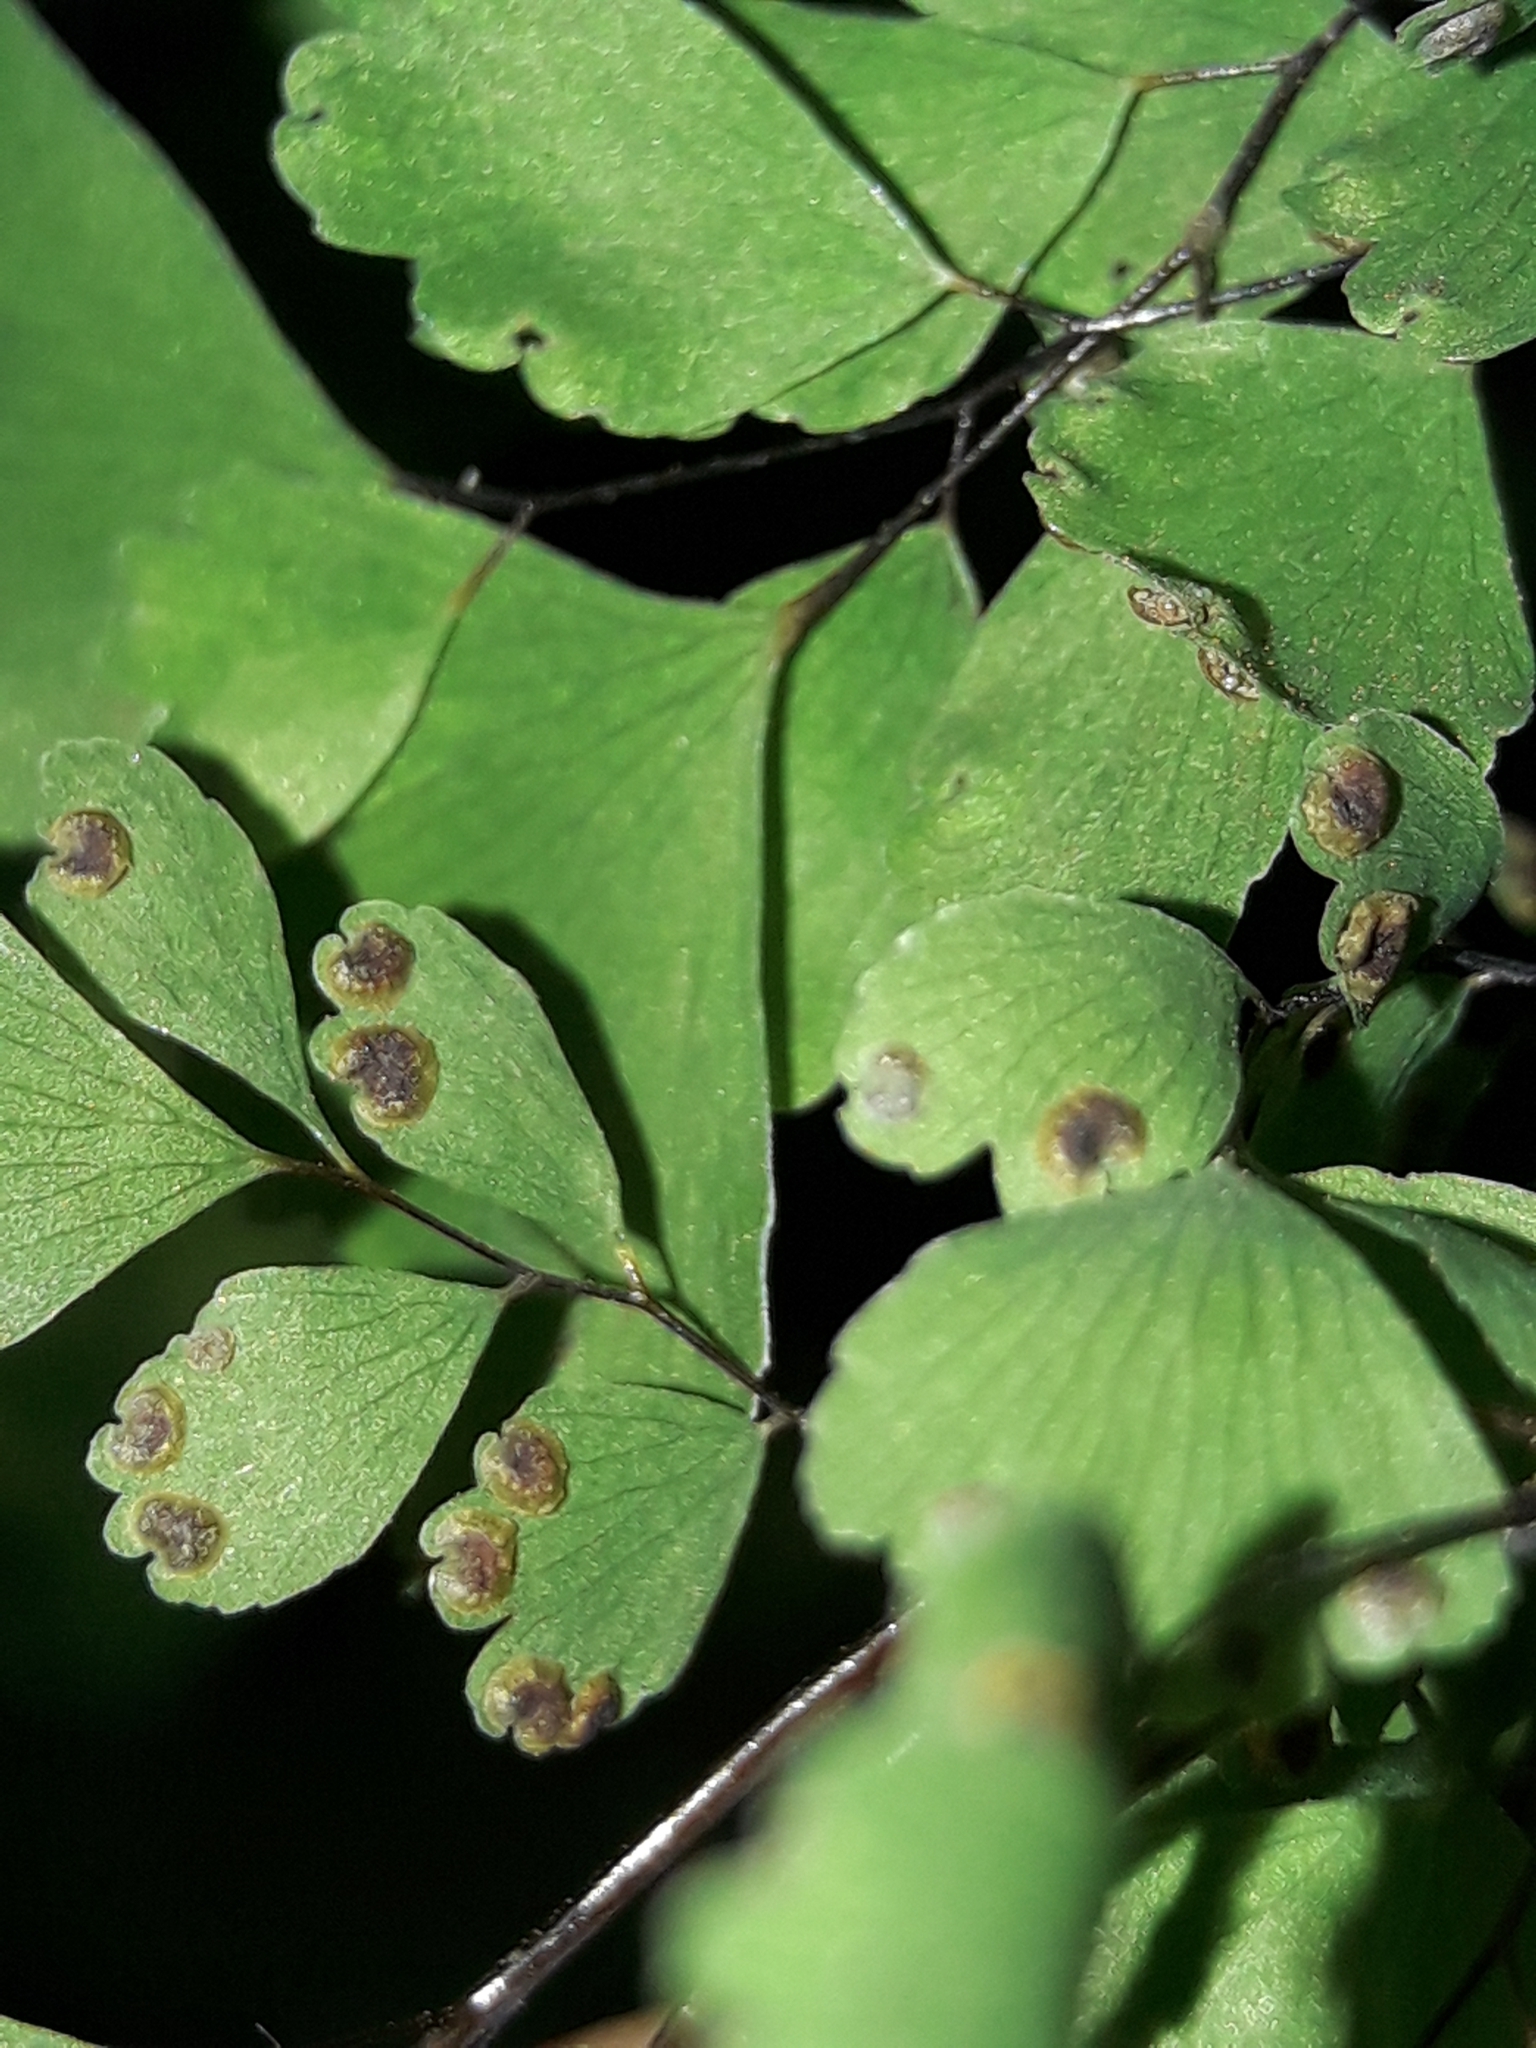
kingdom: Plantae
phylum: Tracheophyta
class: Polypodiopsida
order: Polypodiales
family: Pteridaceae
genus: Adiantum
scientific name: Adiantum raddianum
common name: Delta maidenhair fern
